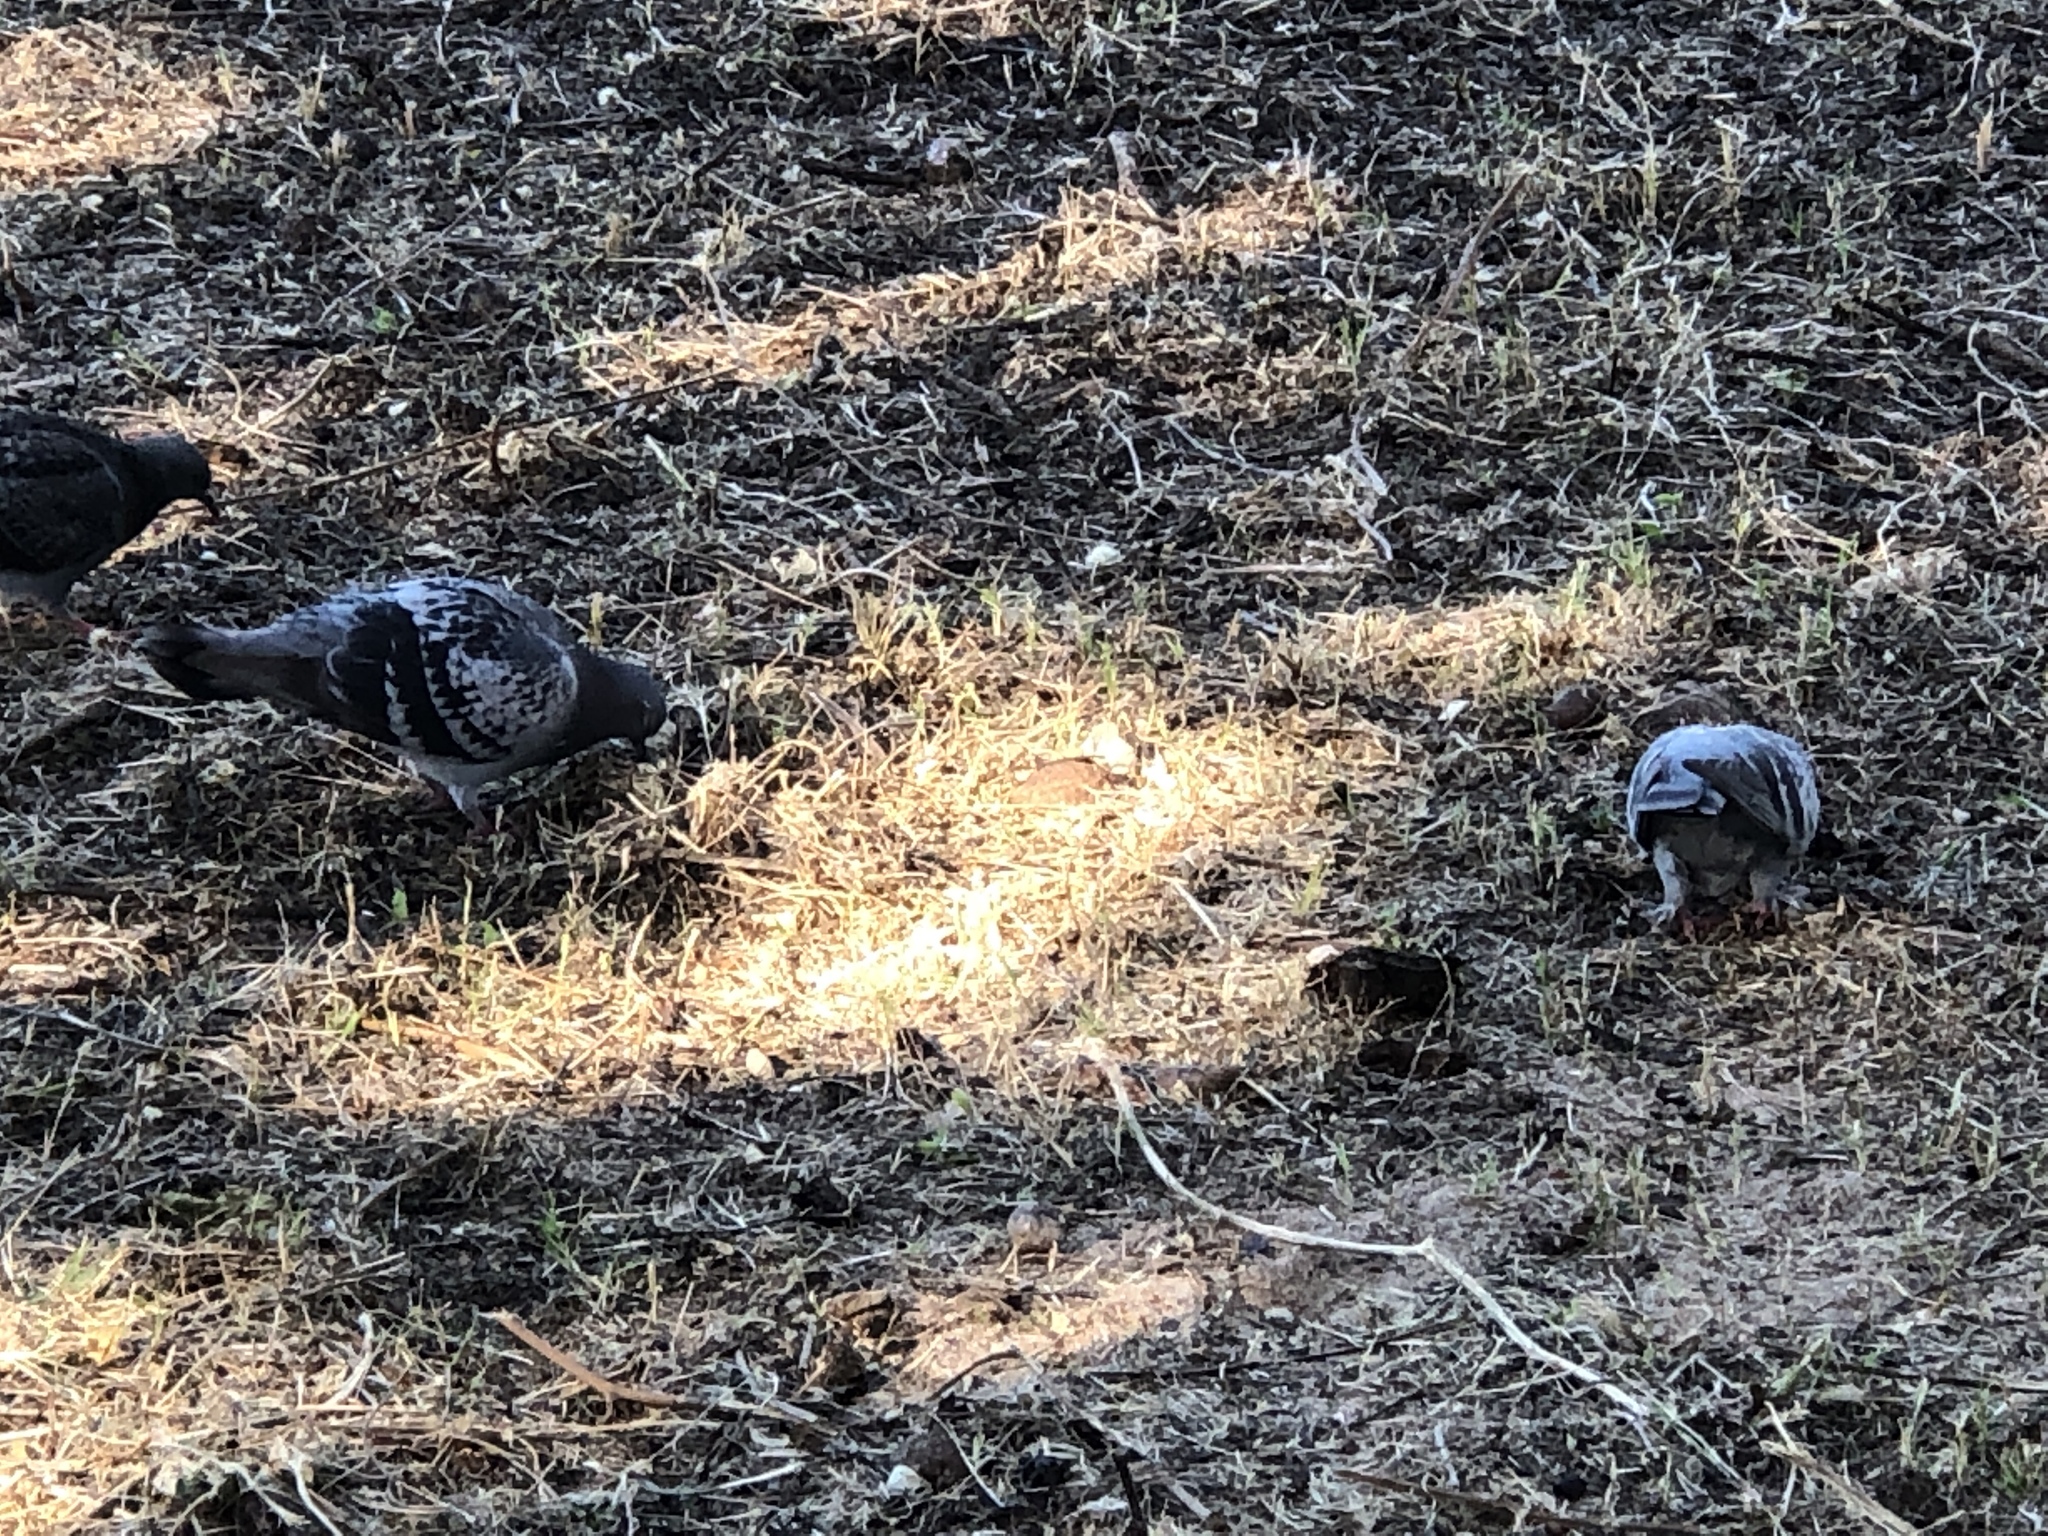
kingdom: Animalia
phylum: Chordata
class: Aves
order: Columbiformes
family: Columbidae
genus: Columba
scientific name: Columba livia
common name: Rock pigeon
